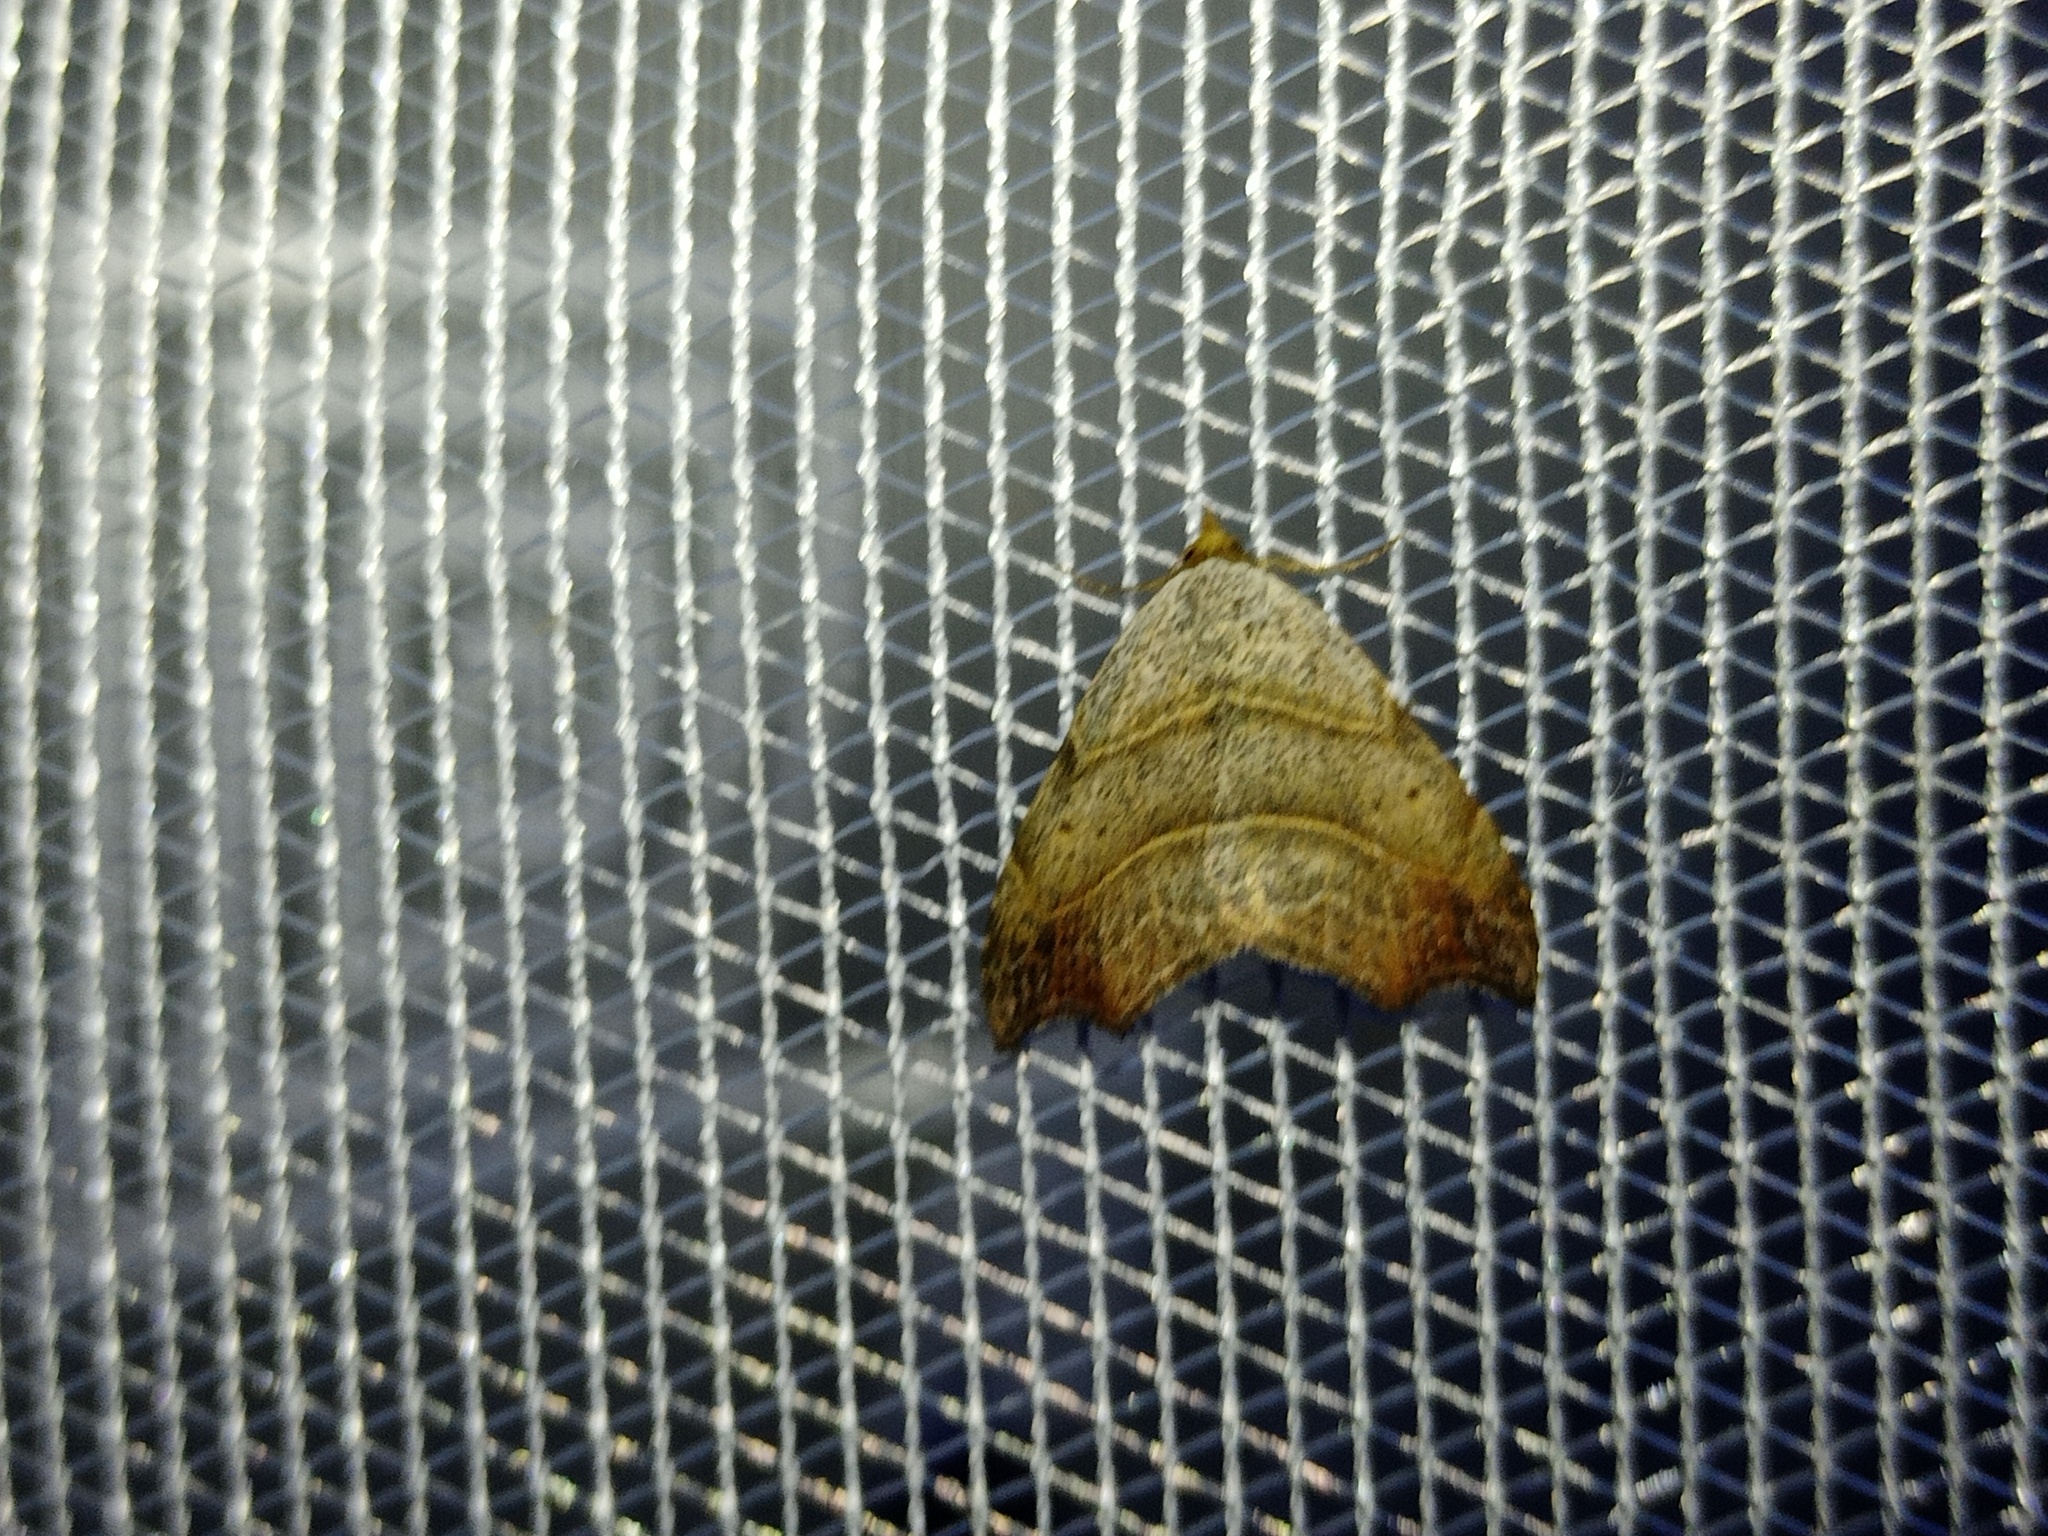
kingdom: Animalia
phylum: Arthropoda
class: Insecta
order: Lepidoptera
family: Erebidae
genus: Laspeyria
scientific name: Laspeyria flexula
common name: Beautiful hook-tip
